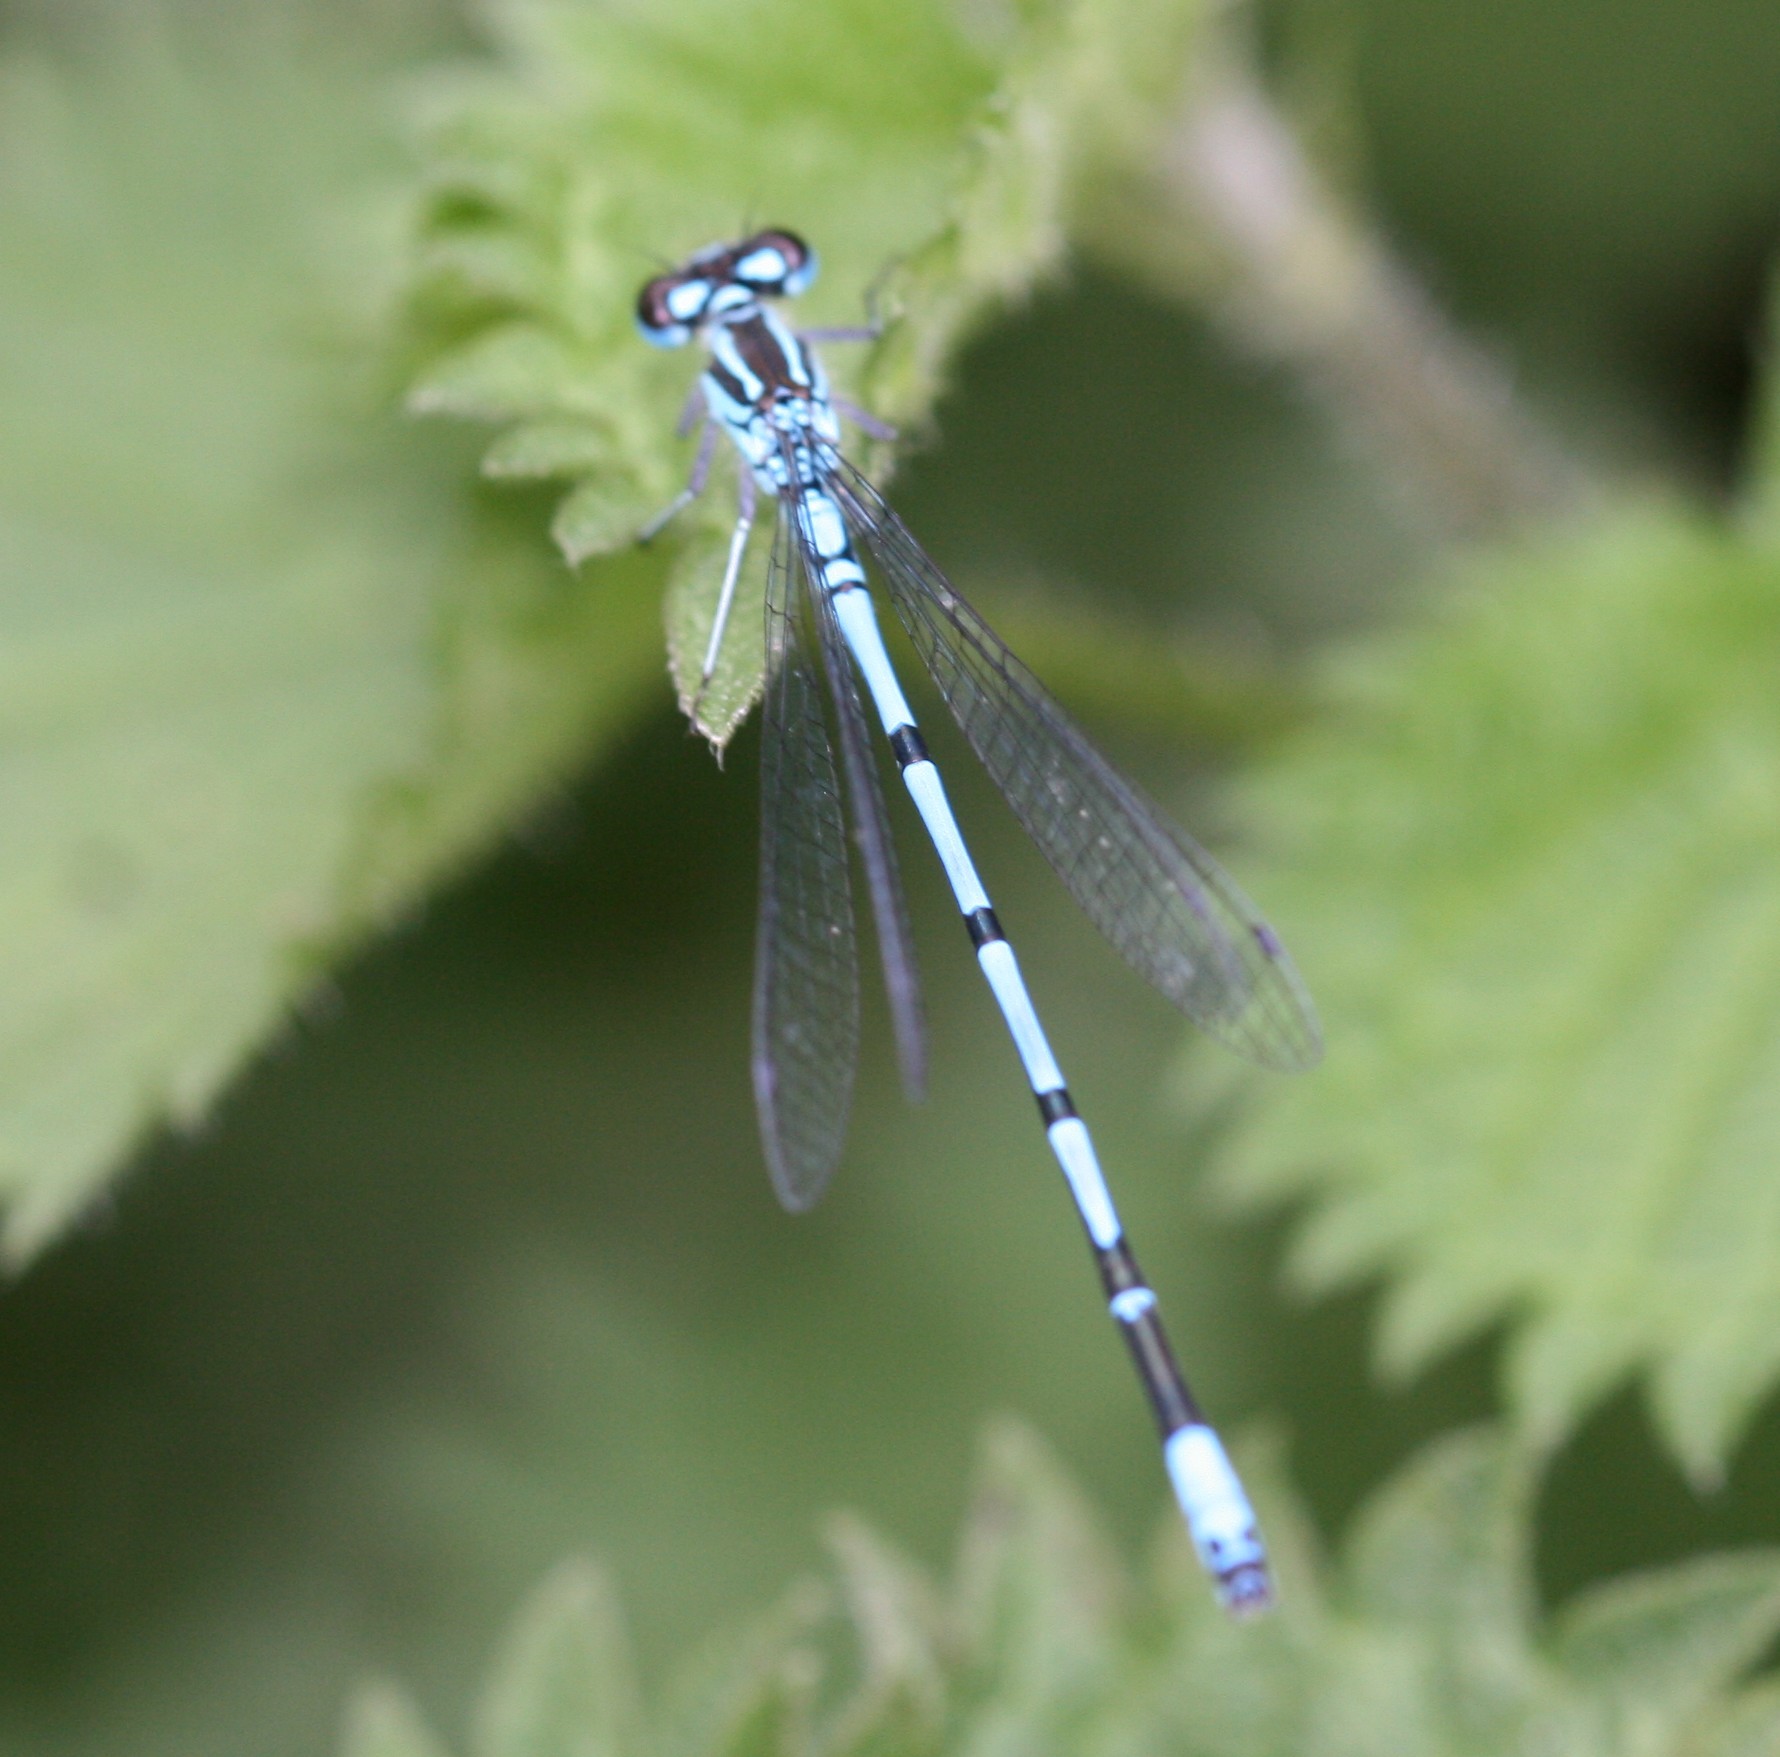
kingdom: Animalia
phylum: Arthropoda
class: Insecta
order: Odonata
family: Coenagrionidae
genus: Coenagrion
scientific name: Coenagrion puella
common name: Azure damselfly
